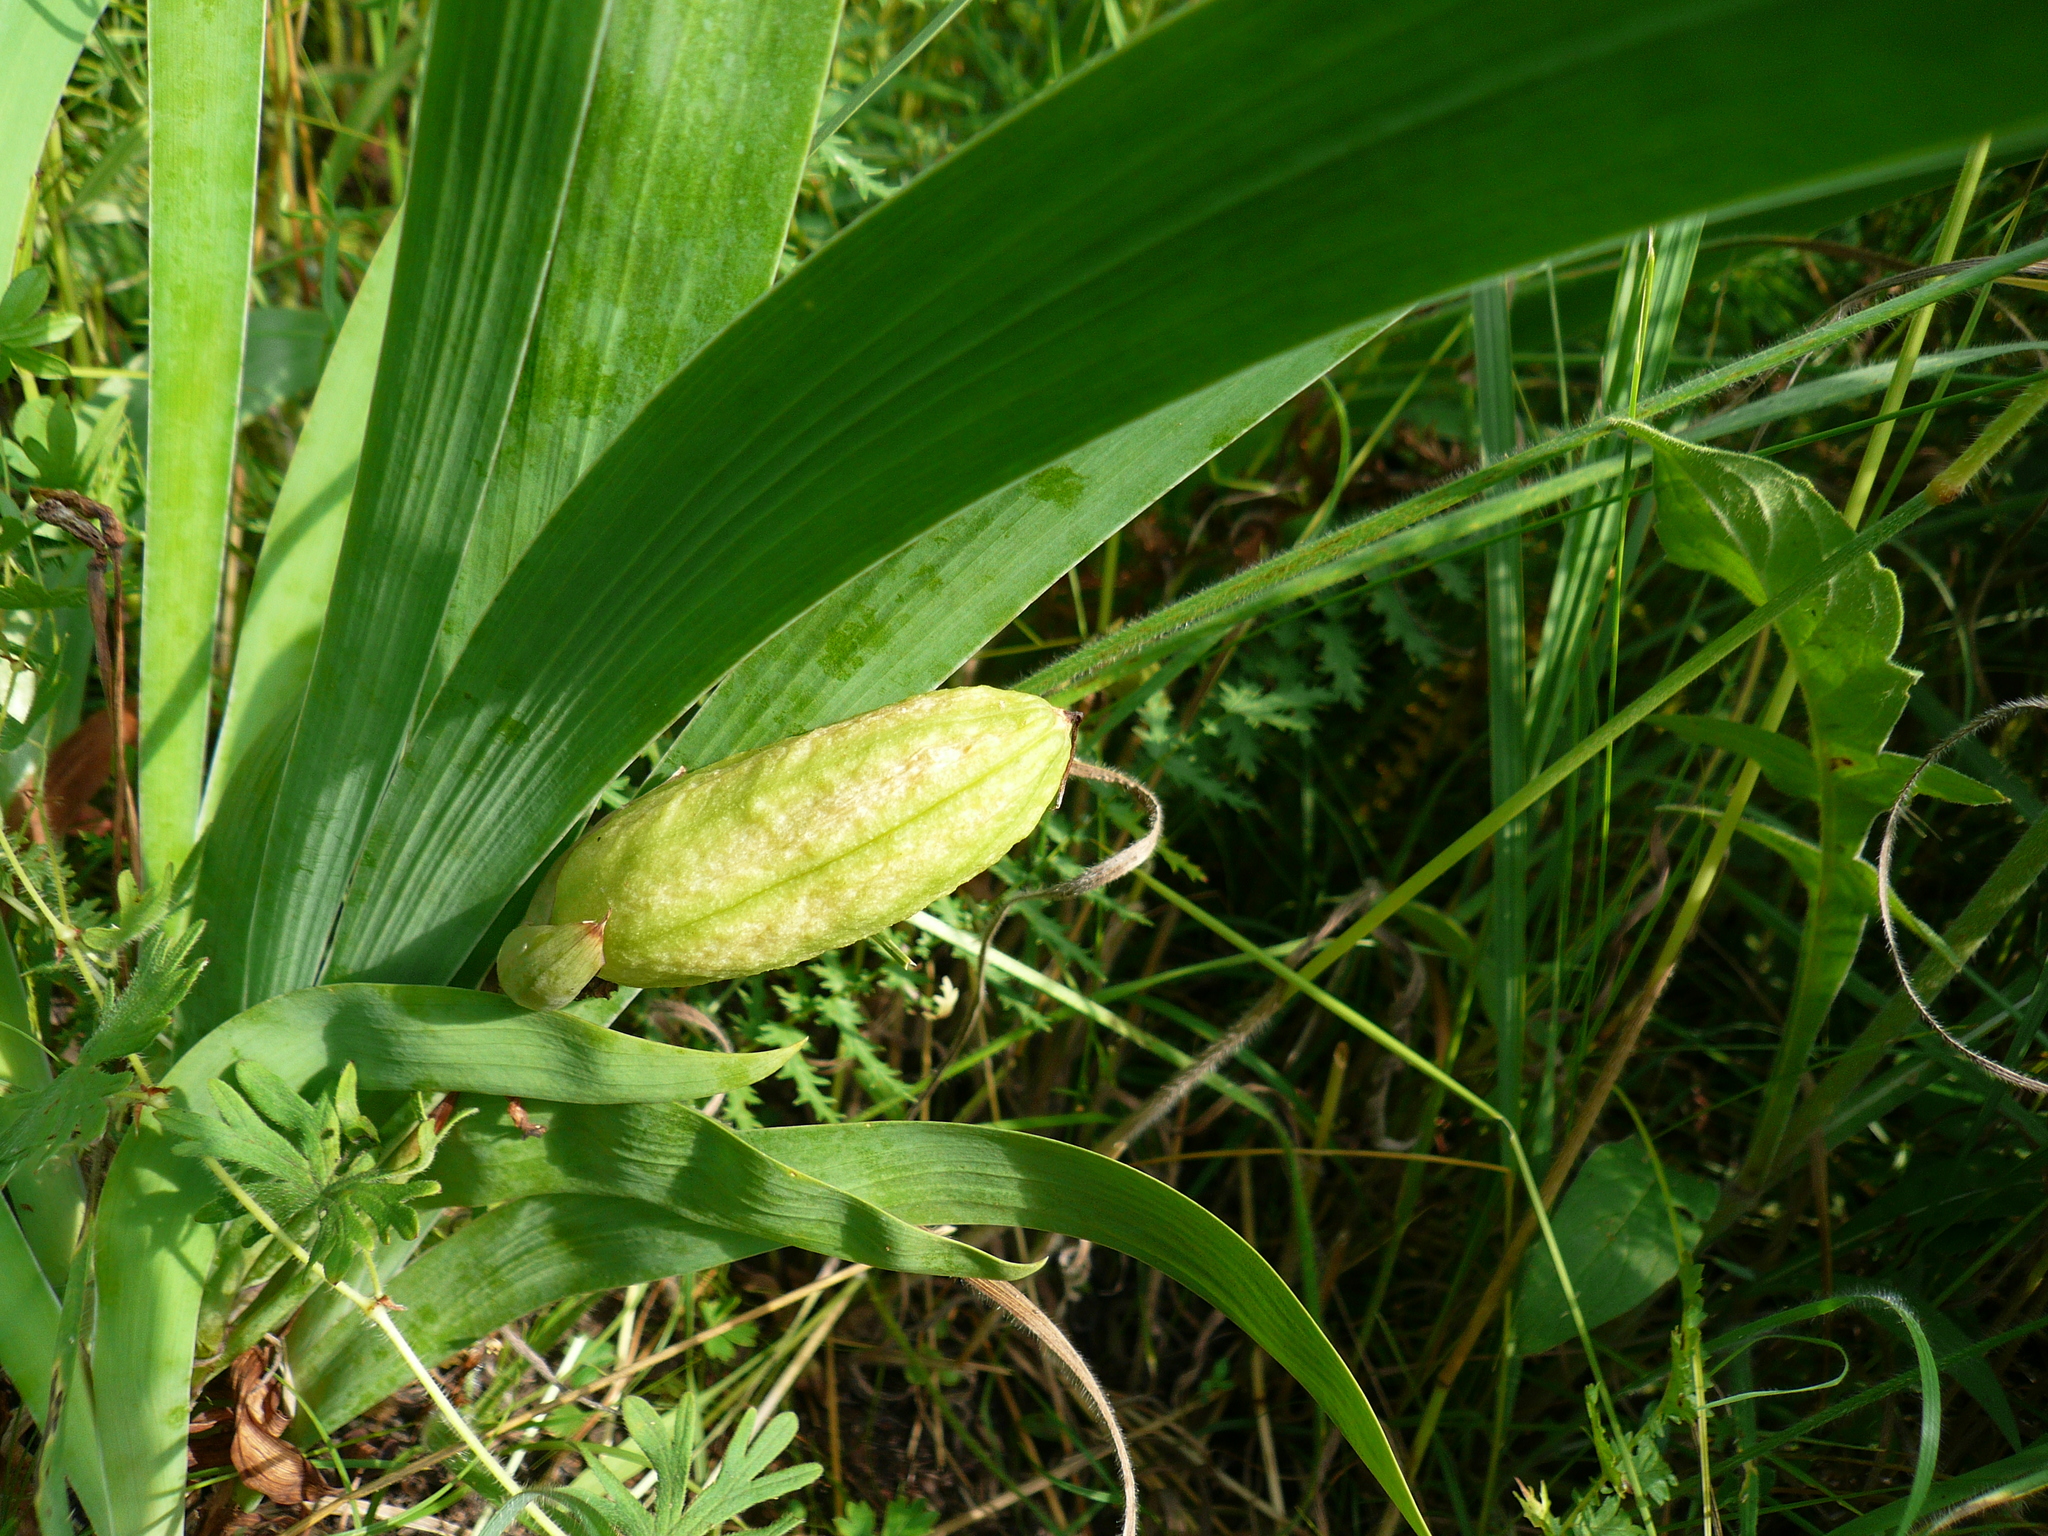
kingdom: Plantae
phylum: Tracheophyta
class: Liliopsida
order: Asparagales
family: Iridaceae
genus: Iris
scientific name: Iris aphylla
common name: Stool iris
